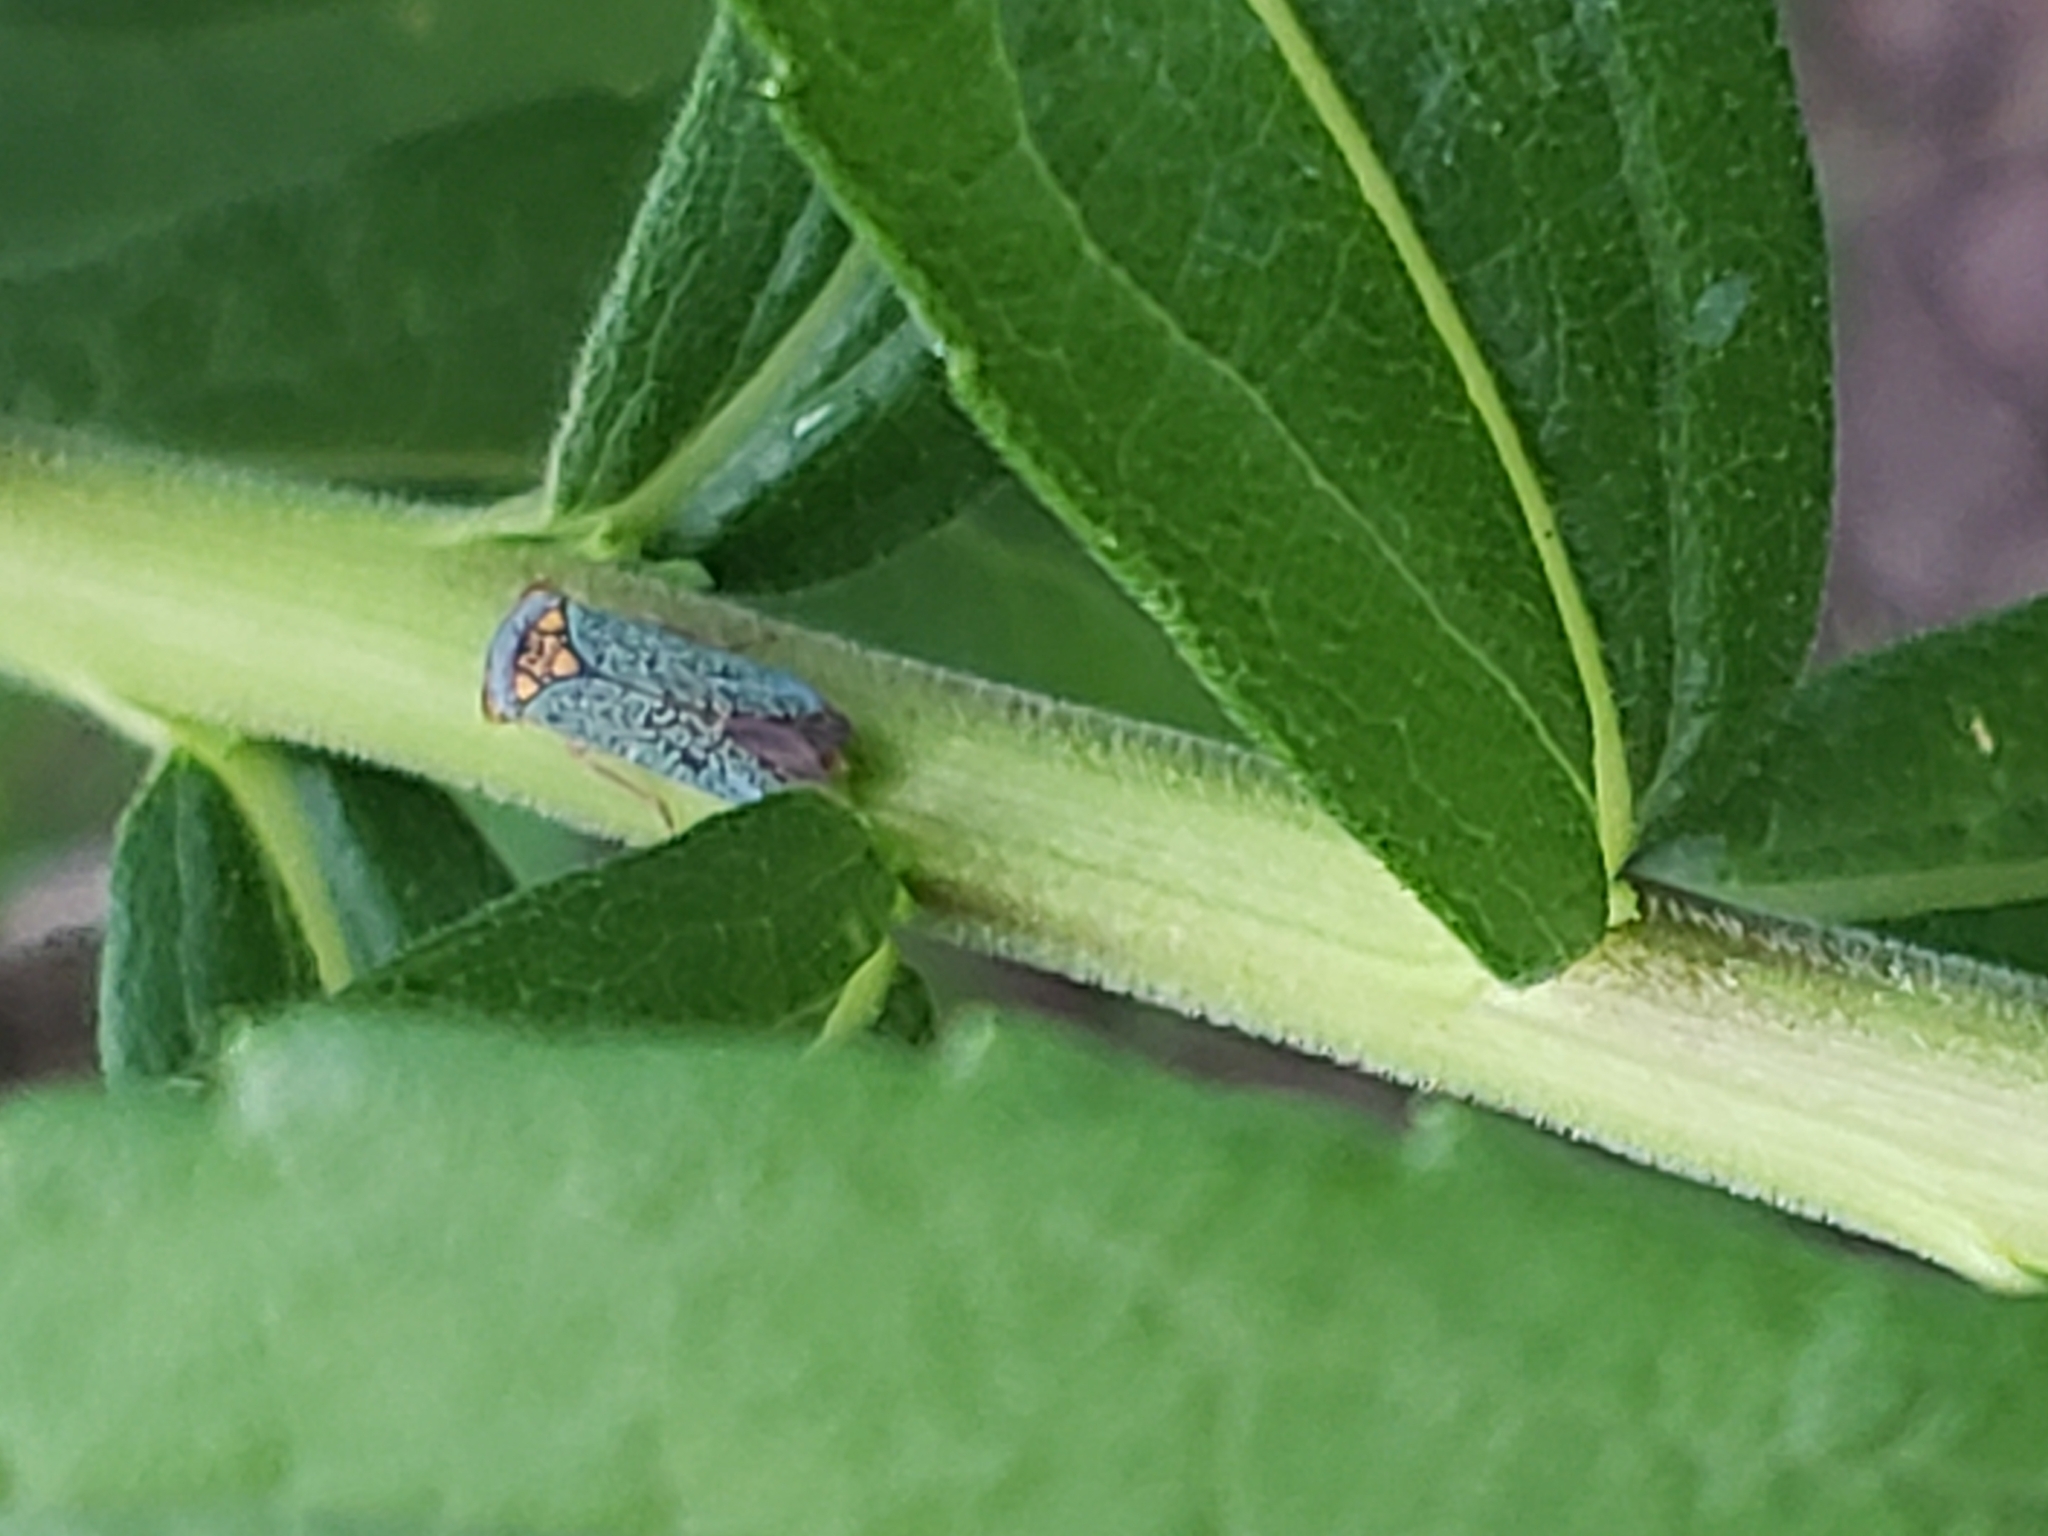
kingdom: Animalia
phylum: Arthropoda
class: Insecta
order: Hemiptera
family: Cicadellidae
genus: Oncometopia
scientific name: Oncometopia orbona
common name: Broad-headed sharpshooter
